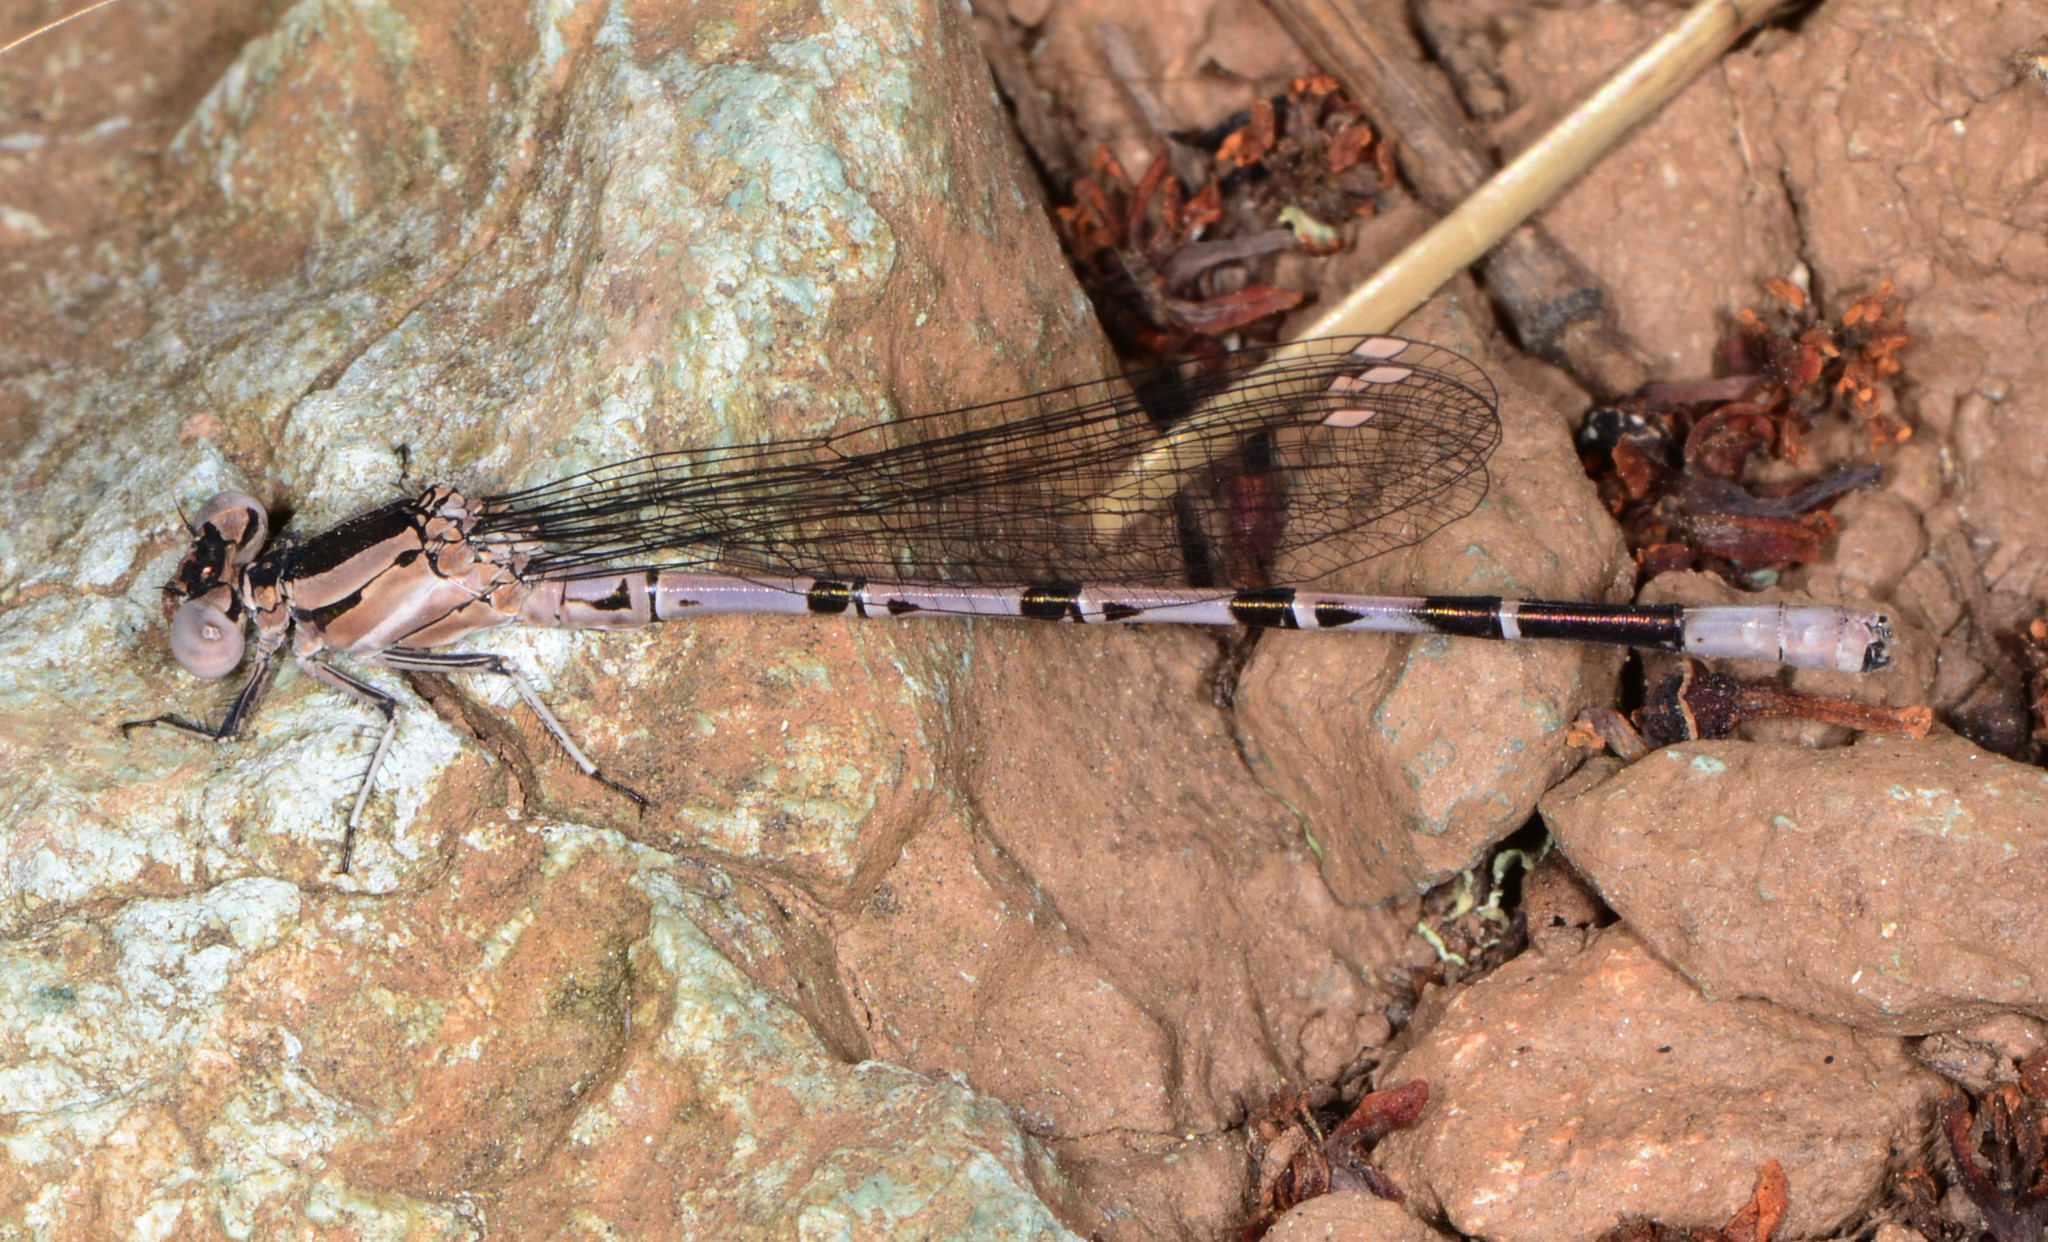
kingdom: Animalia
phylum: Arthropoda
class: Insecta
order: Odonata
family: Coenagrionidae
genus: Argia
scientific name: Argia vivida
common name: Vivid dancer
